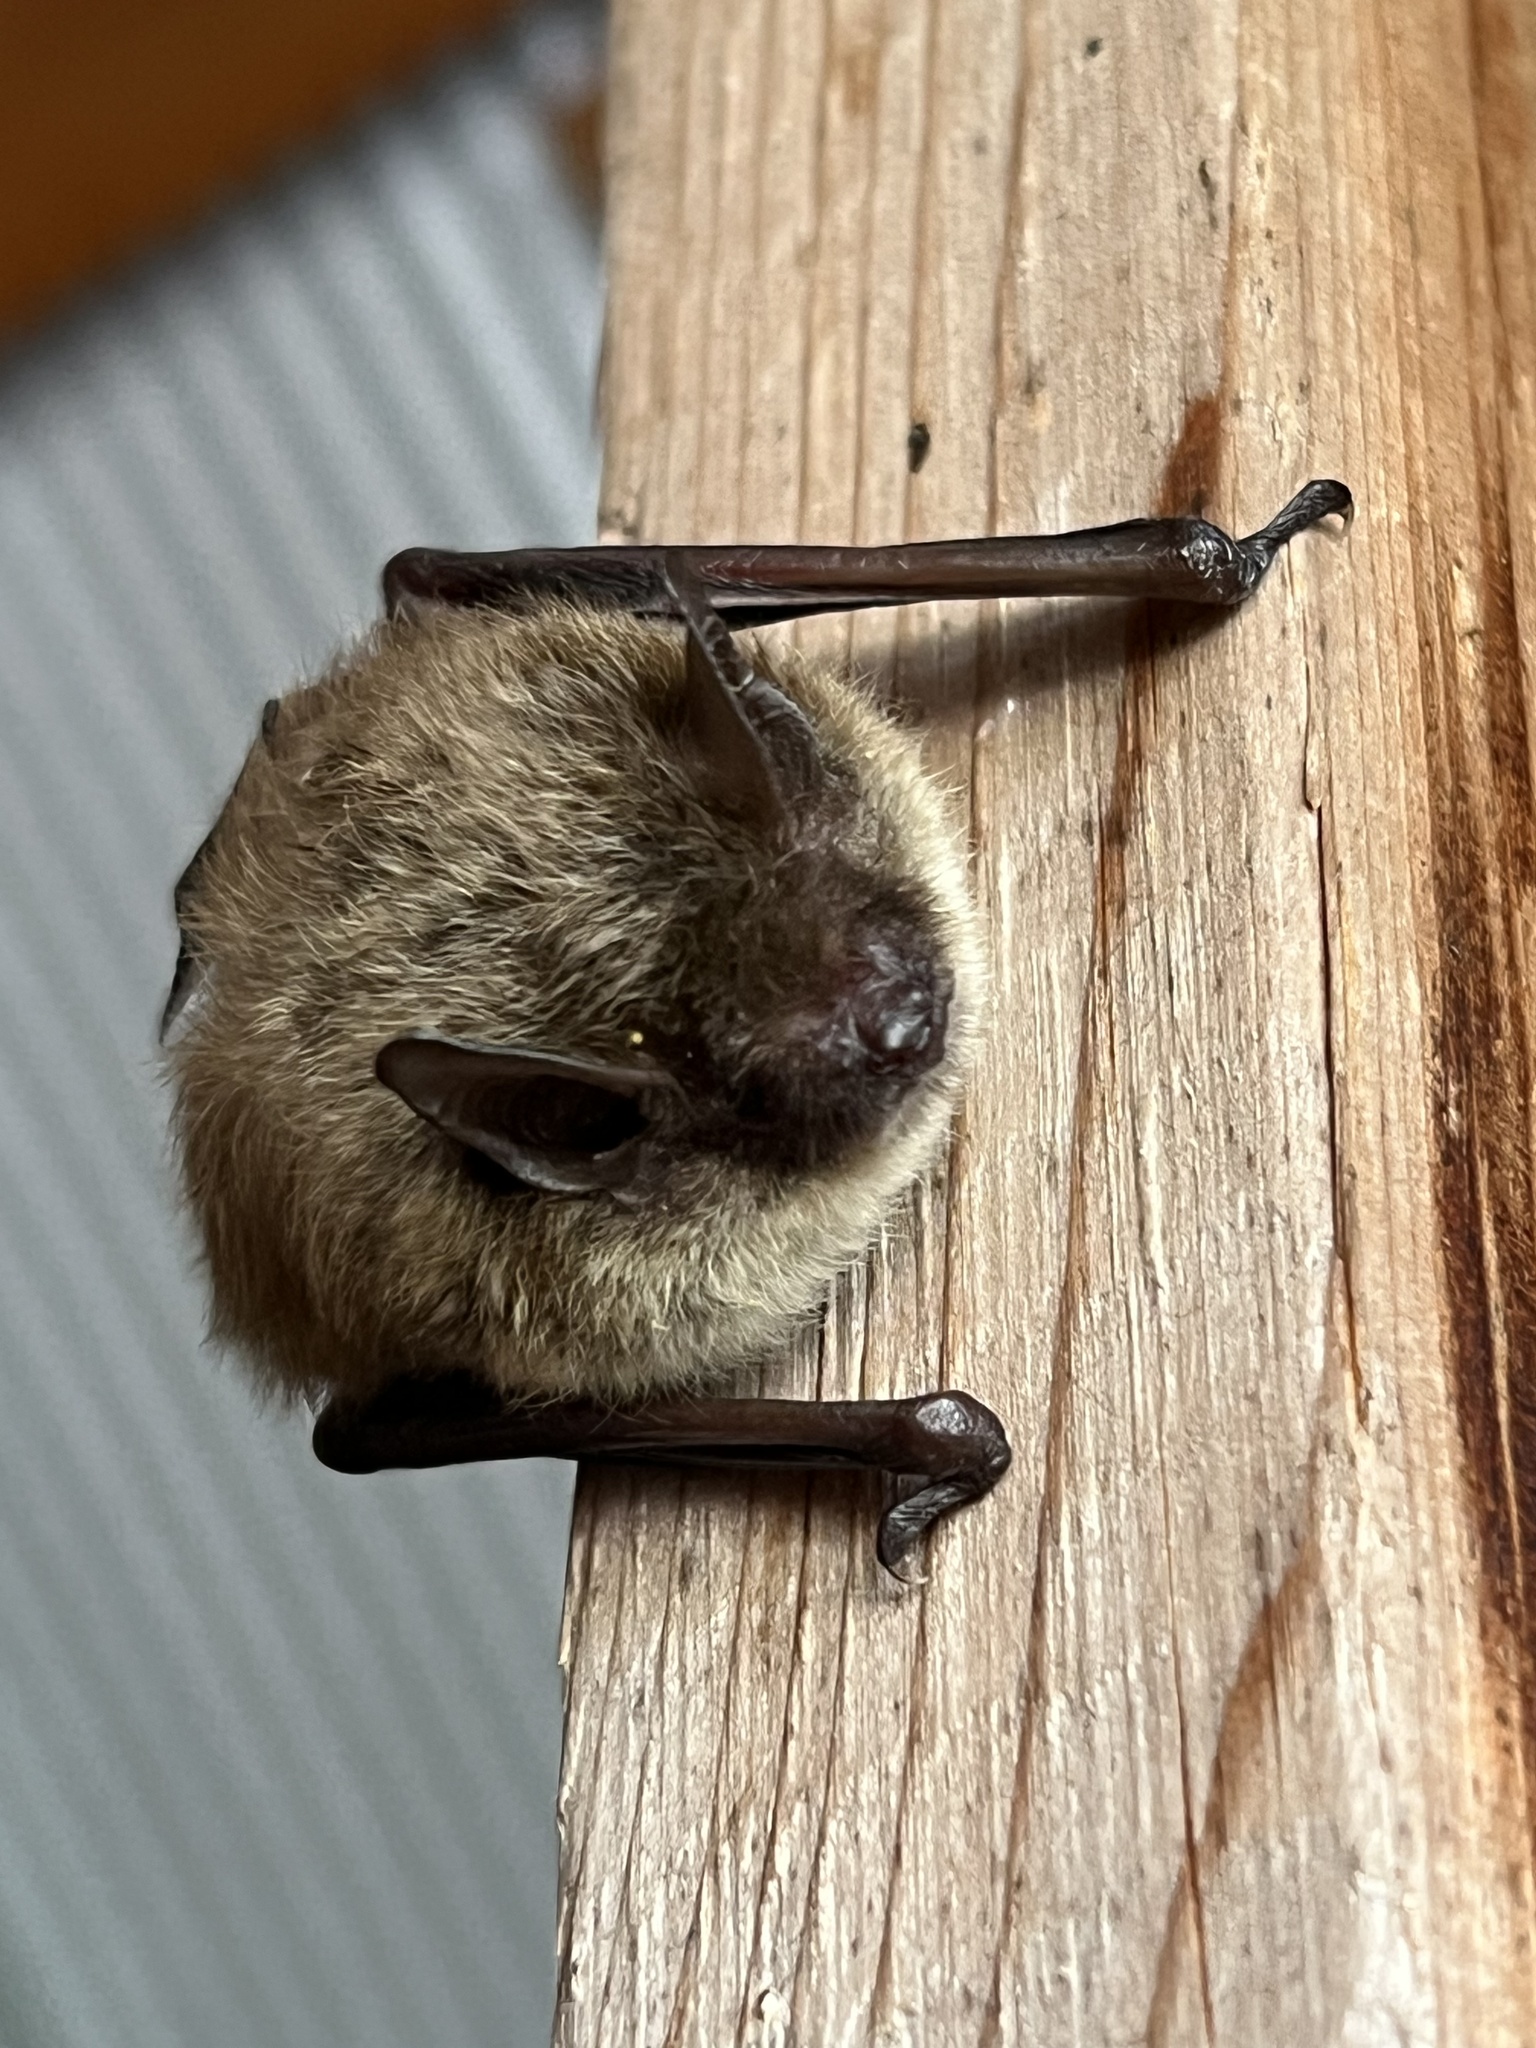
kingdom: Animalia
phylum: Chordata
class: Mammalia
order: Chiroptera
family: Vespertilionidae
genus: Myotis
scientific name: Myotis lucifugus
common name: Little brown bat
